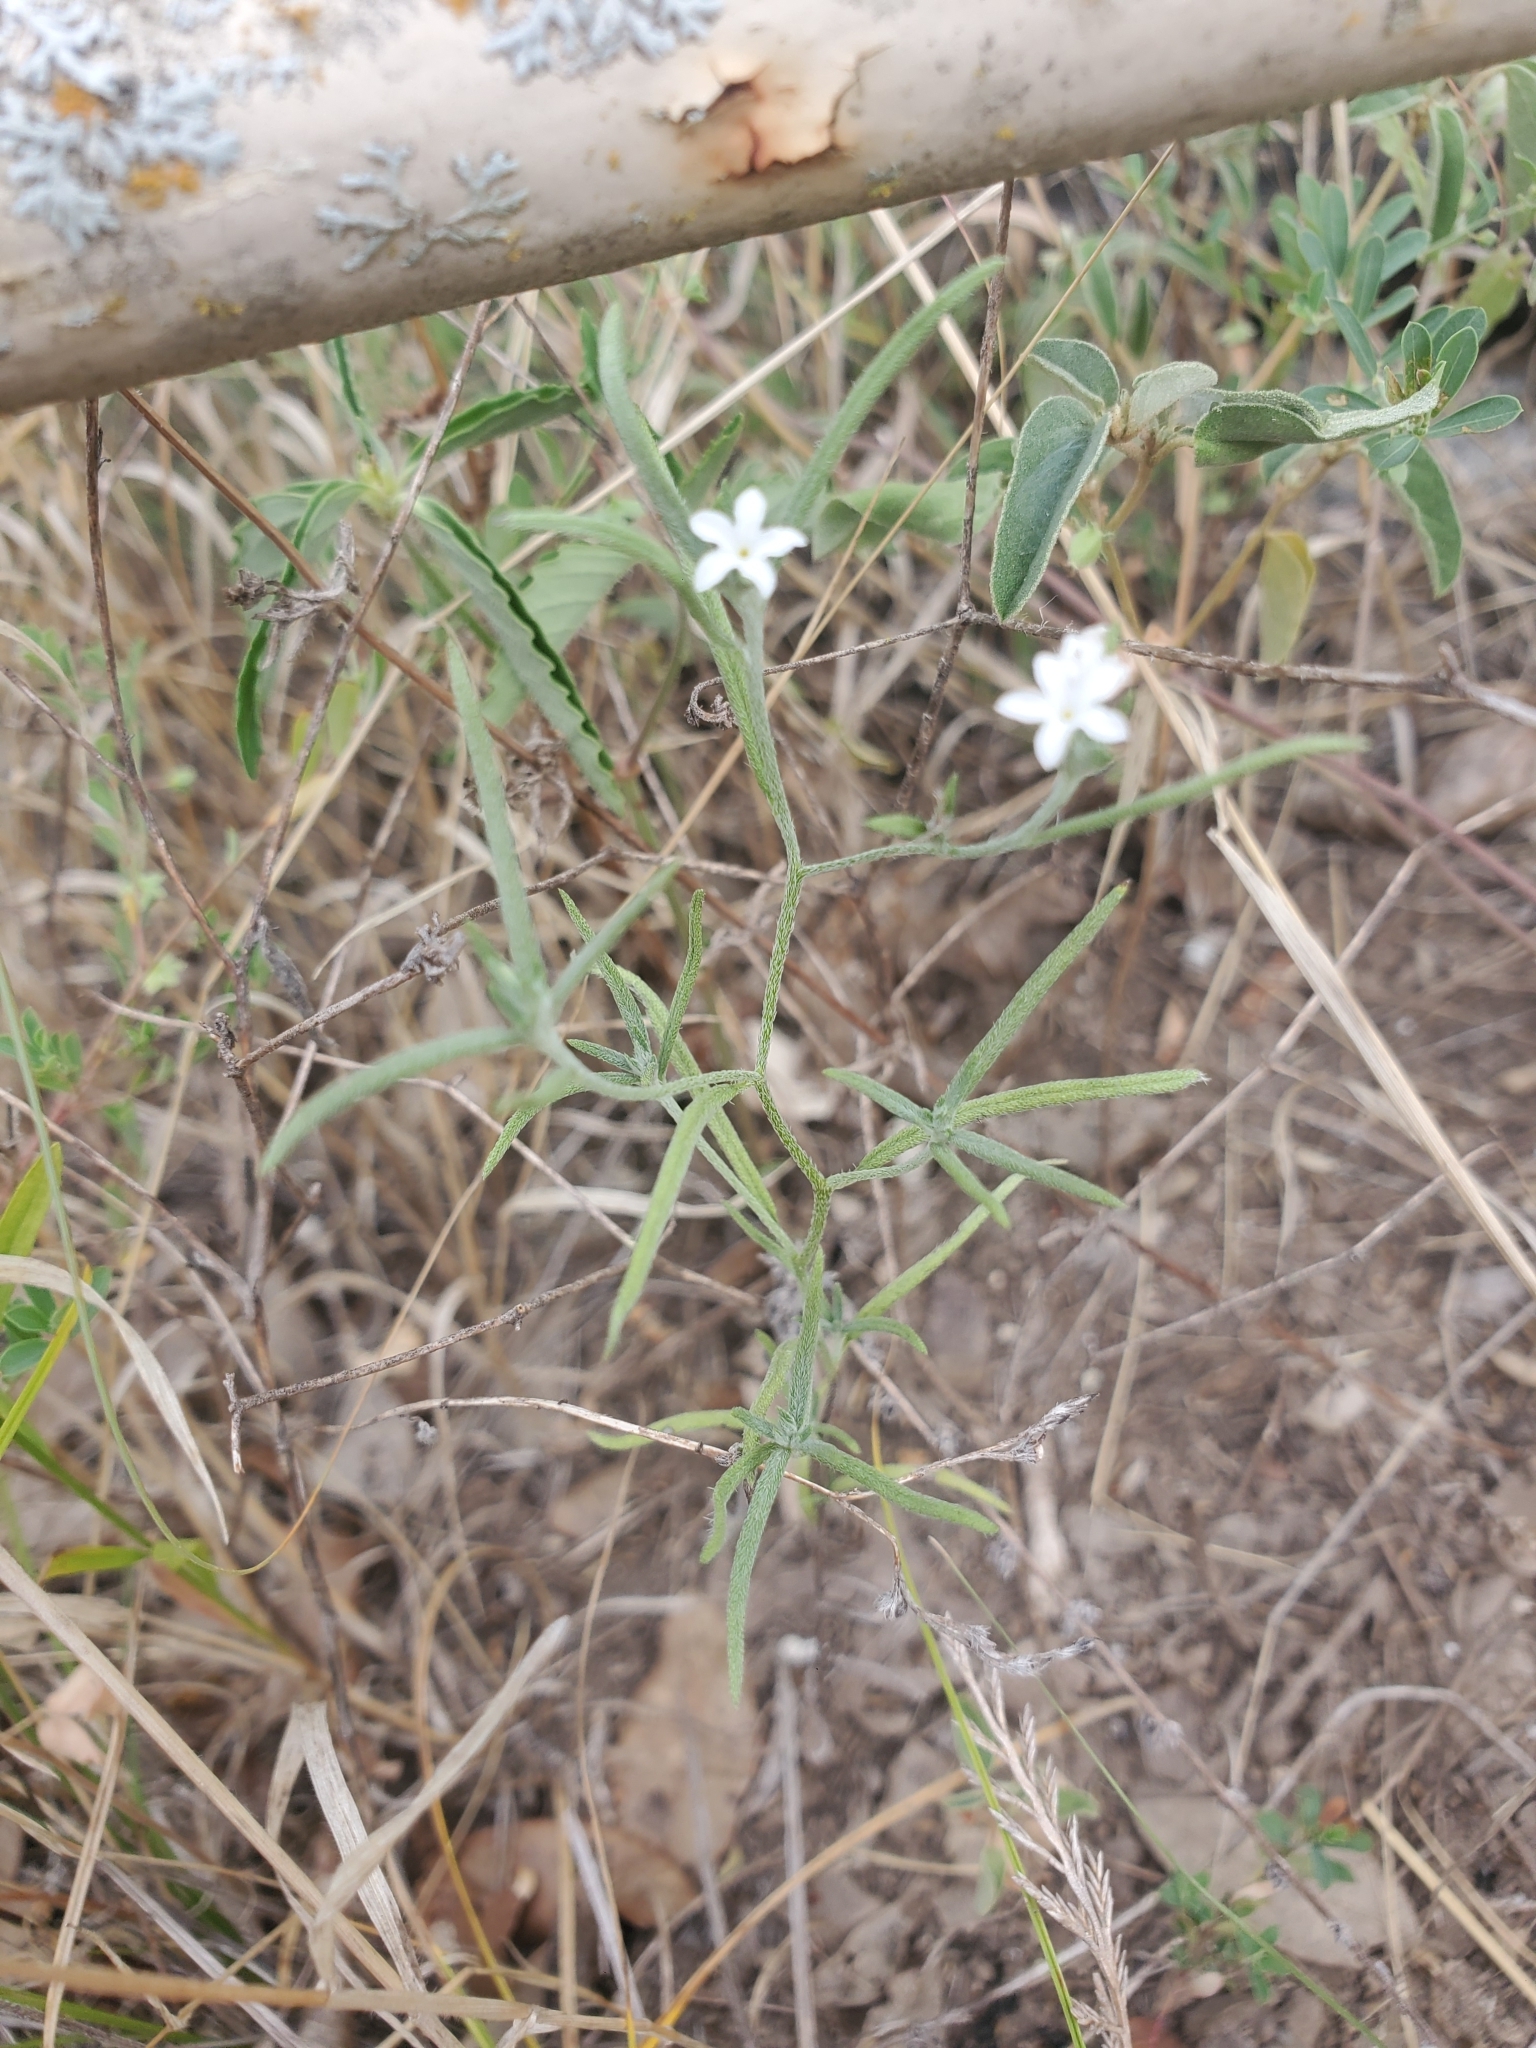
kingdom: Plantae
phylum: Tracheophyta
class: Magnoliopsida
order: Boraginales
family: Heliotropiaceae
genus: Euploca
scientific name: Euploca tenella
